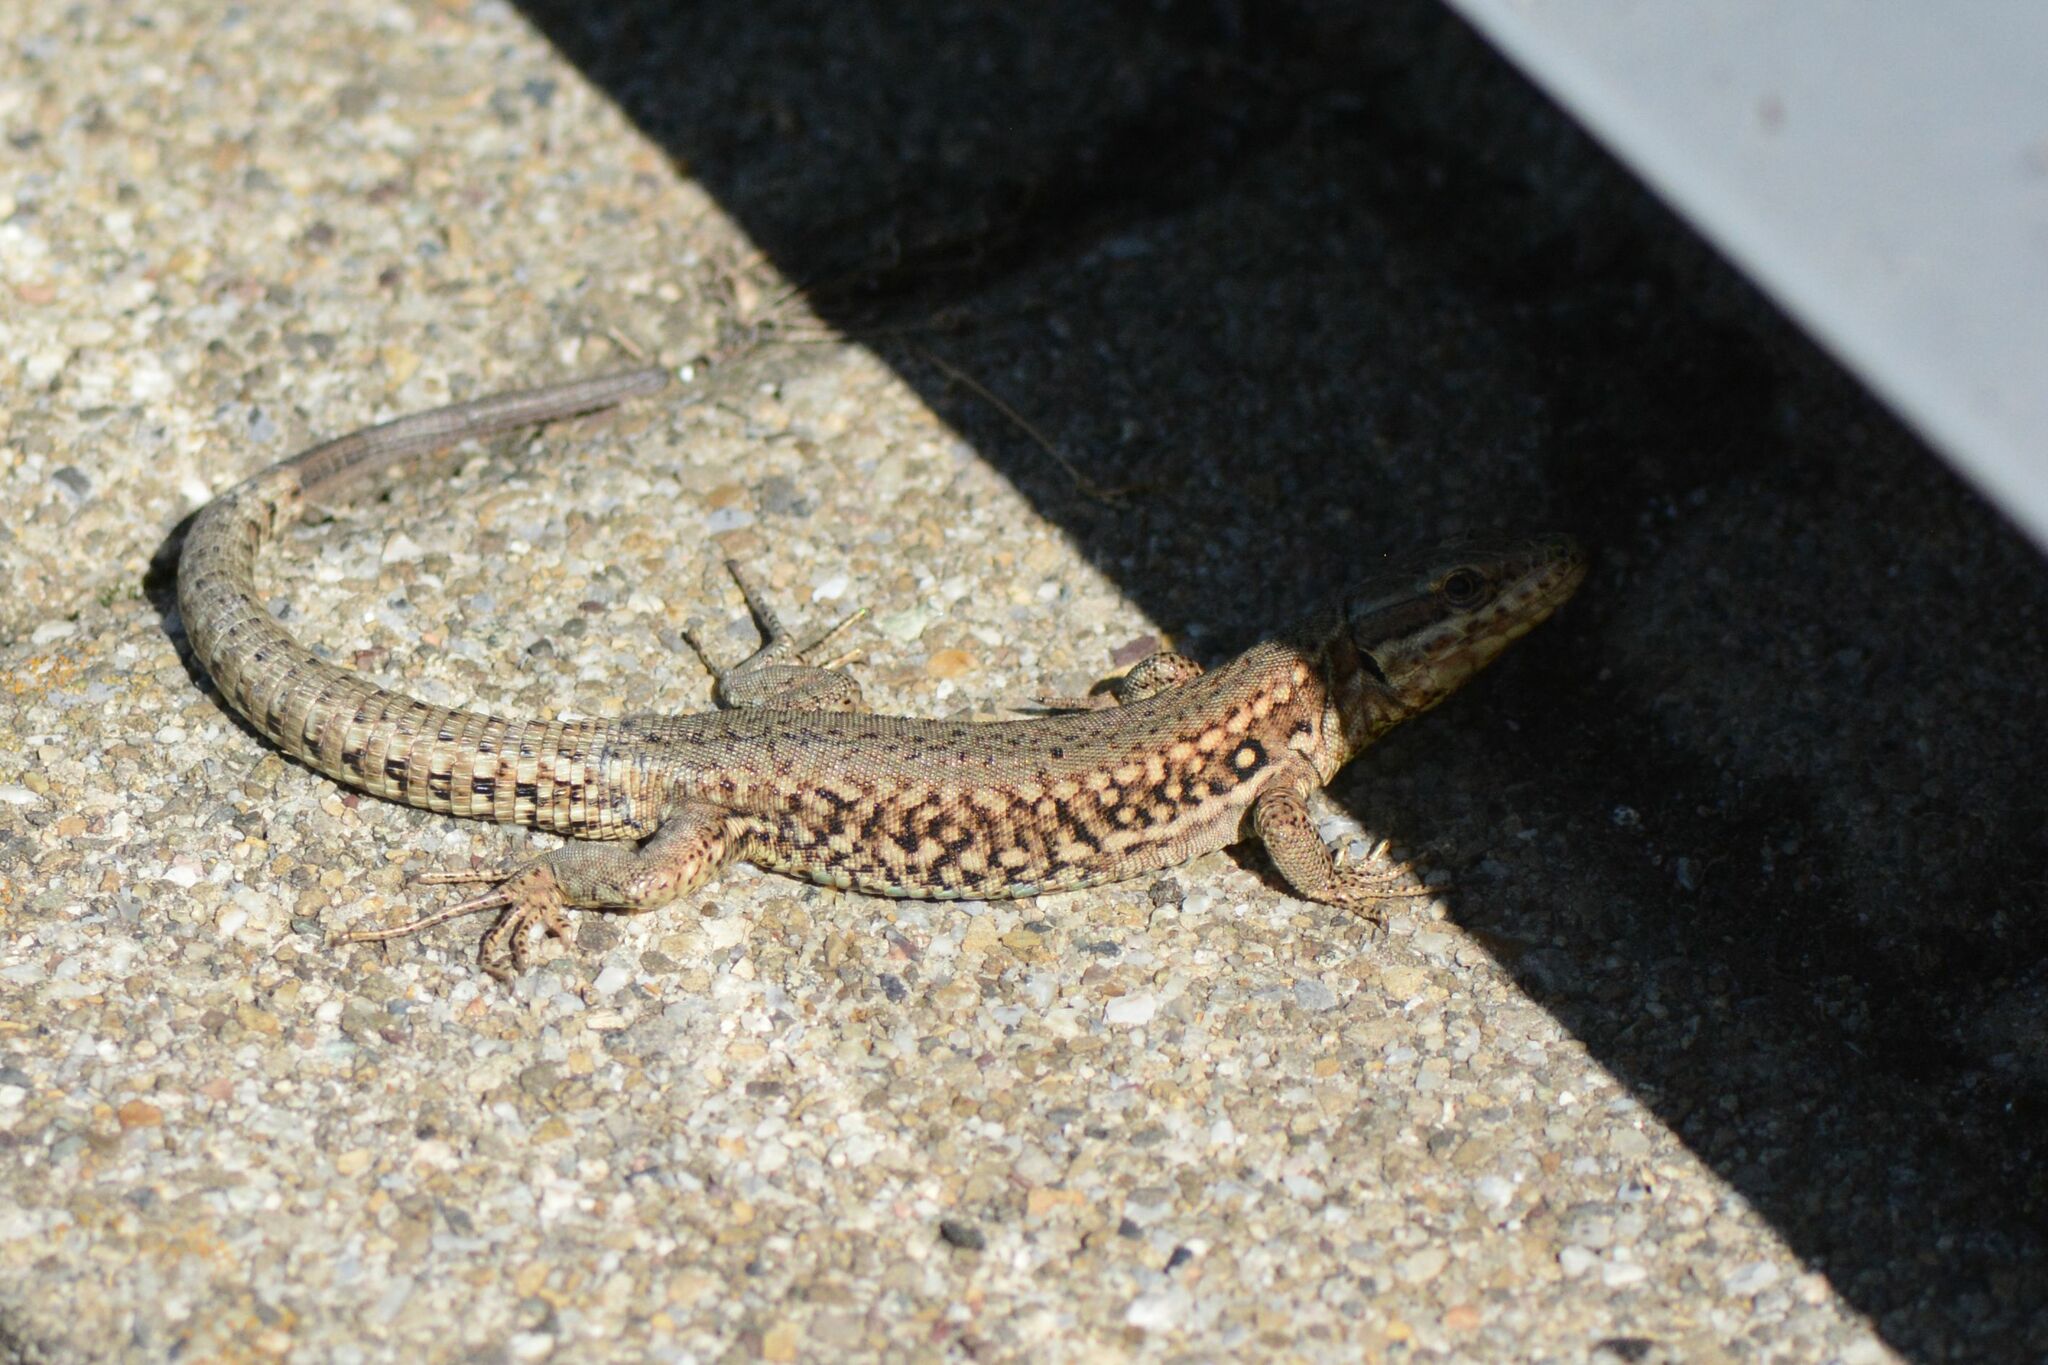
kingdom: Animalia
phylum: Chordata
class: Squamata
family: Lacertidae
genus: Podarcis
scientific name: Podarcis muralis
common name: Common wall lizard
